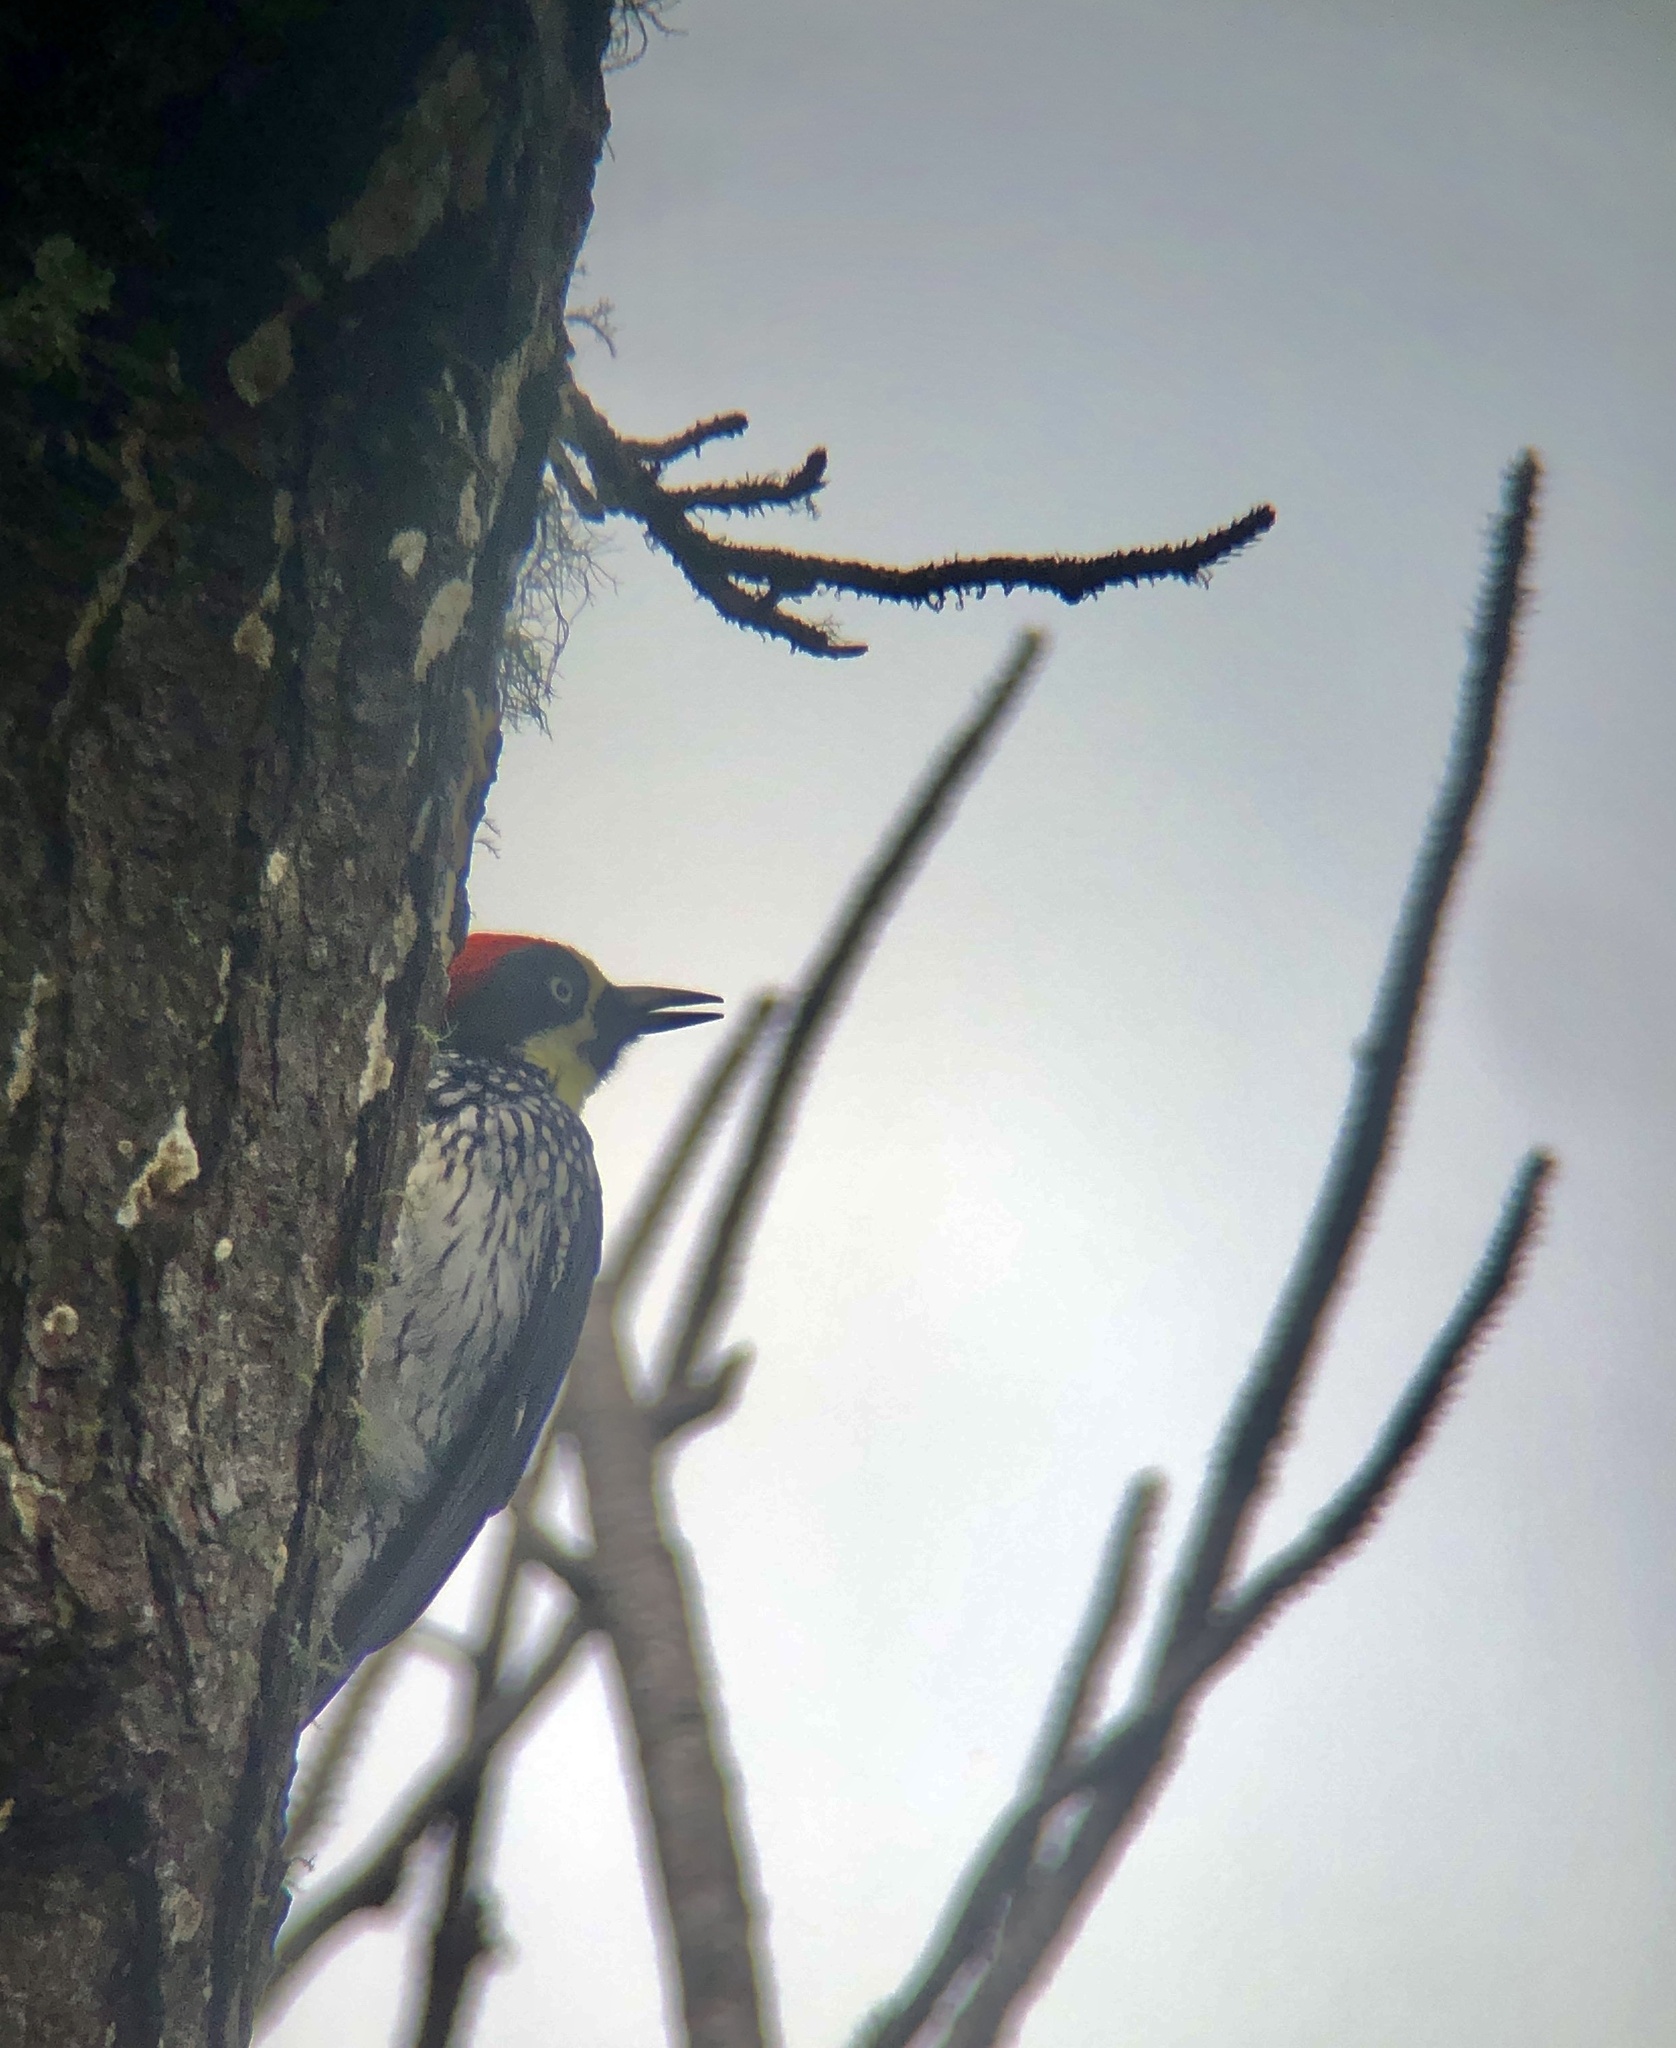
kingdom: Animalia
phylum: Chordata
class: Aves
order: Piciformes
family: Picidae
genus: Melanerpes
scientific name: Melanerpes formicivorus
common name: Acorn woodpecker
